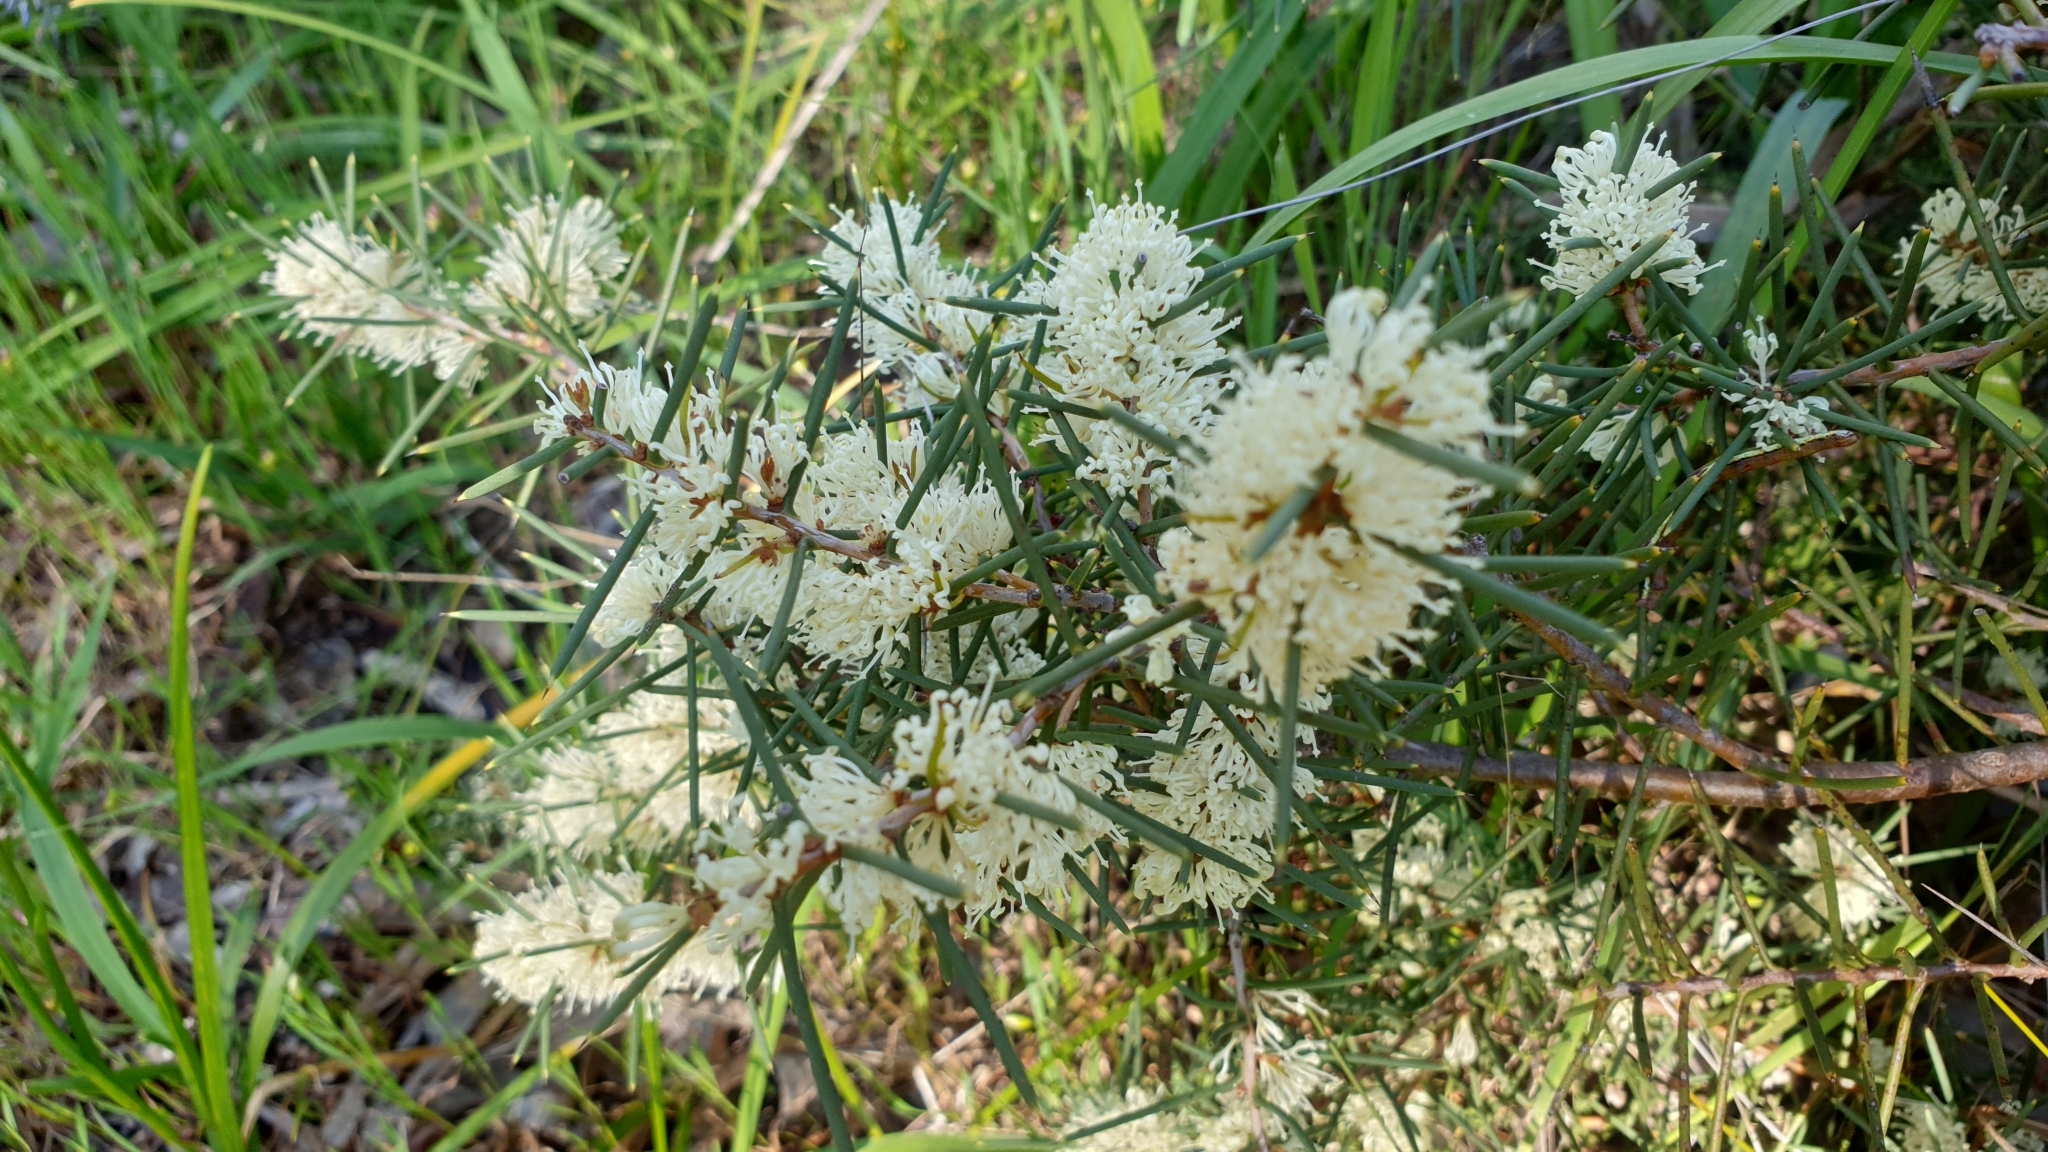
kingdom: Plantae
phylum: Tracheophyta
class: Magnoliopsida
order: Proteales
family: Proteaceae
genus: Hakea
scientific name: Hakea rugosa
